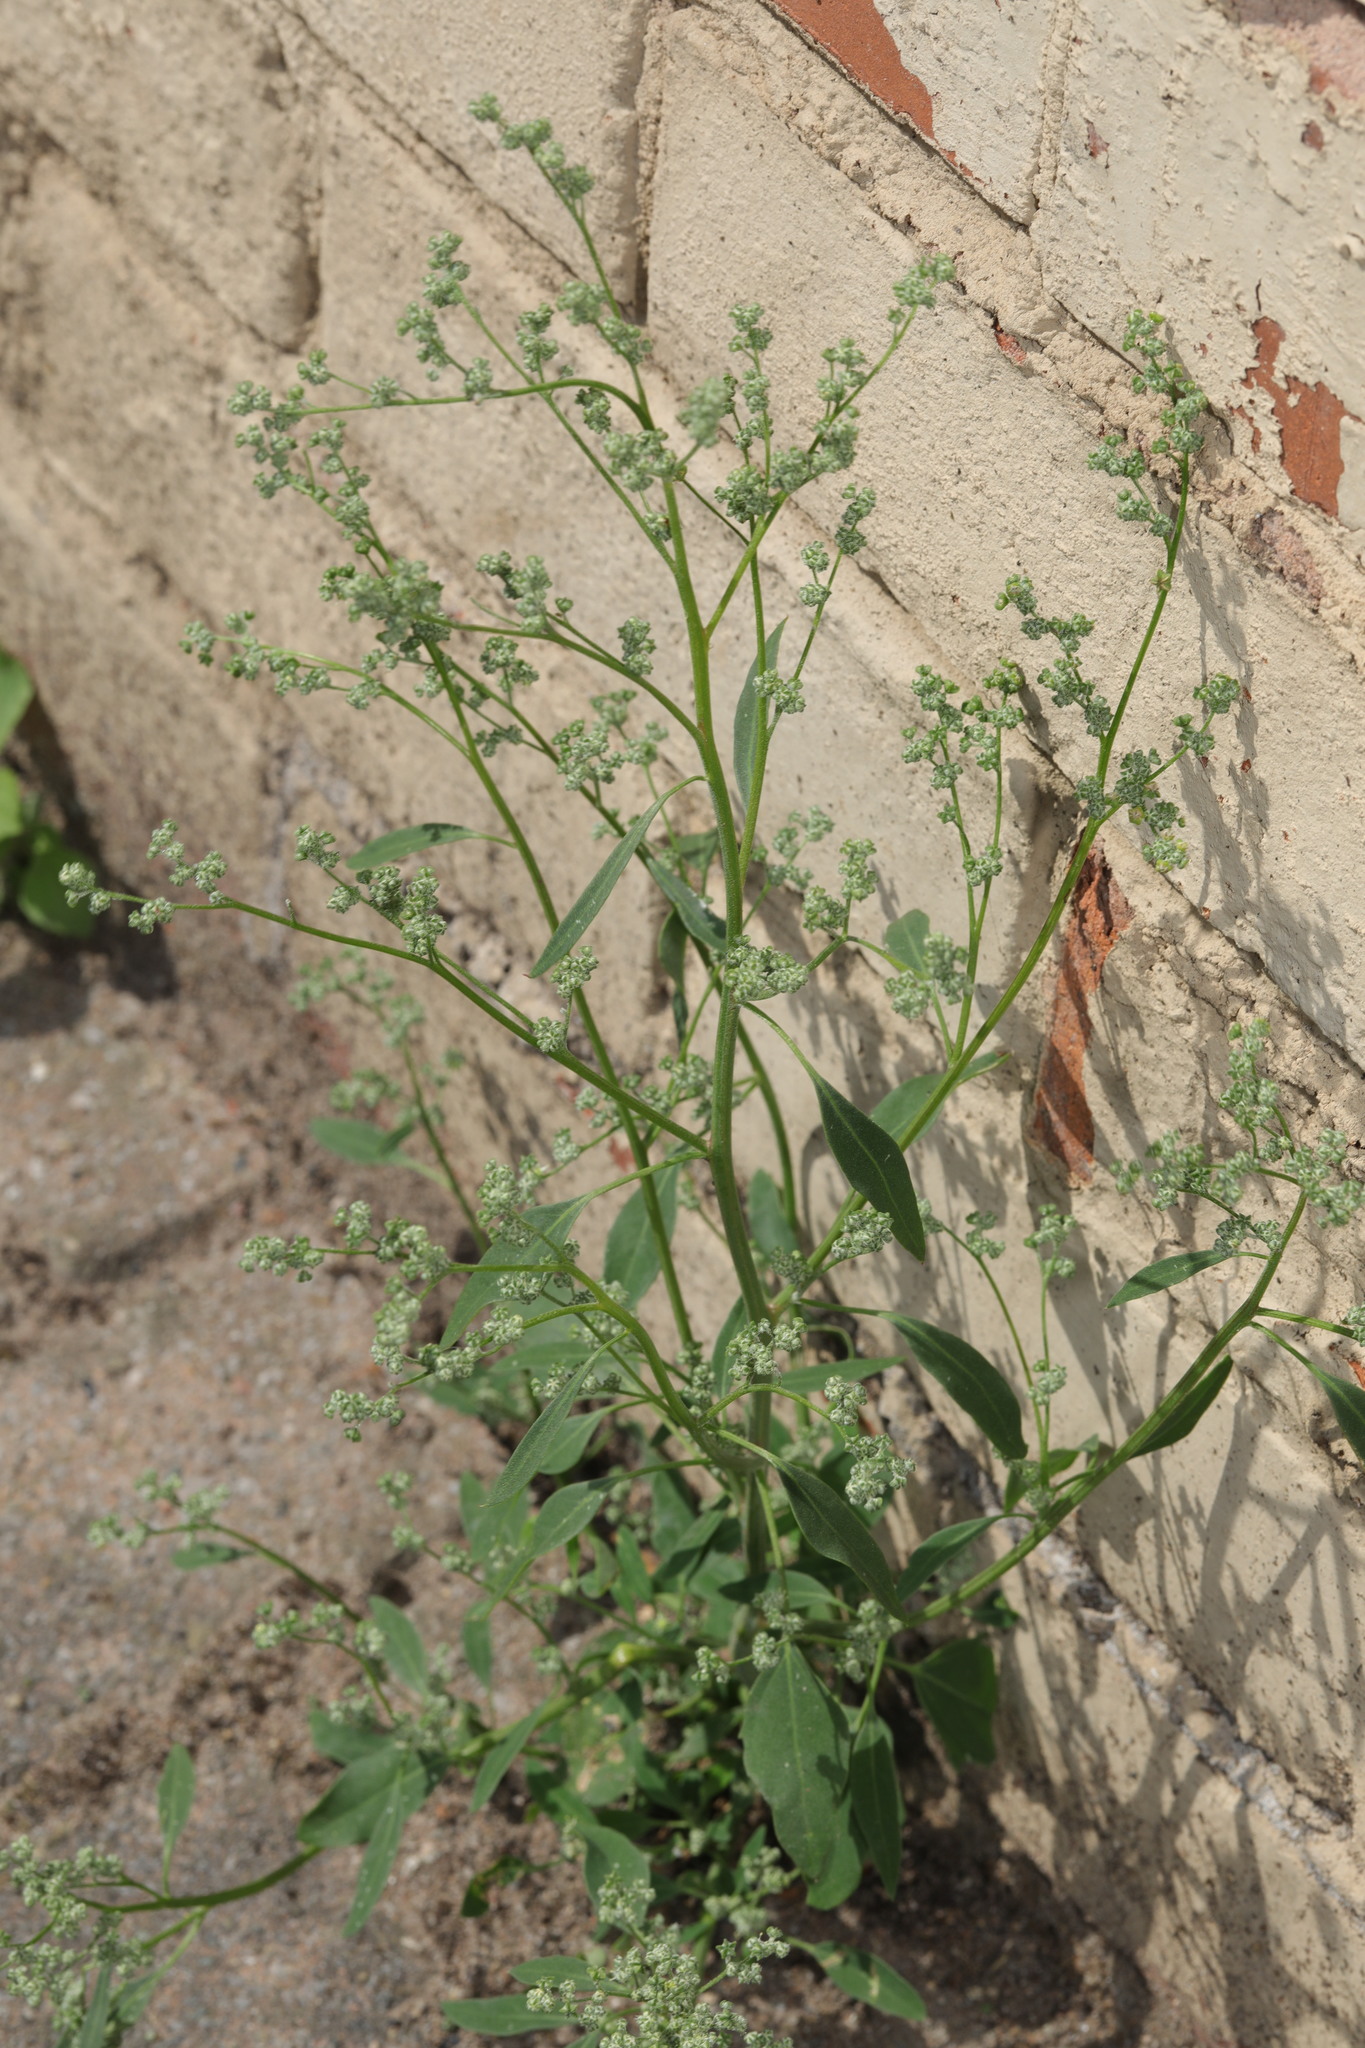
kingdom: Plantae
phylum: Tracheophyta
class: Magnoliopsida
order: Caryophyllales
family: Amaranthaceae
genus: Chenopodium
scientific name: Chenopodium album
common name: Fat-hen
